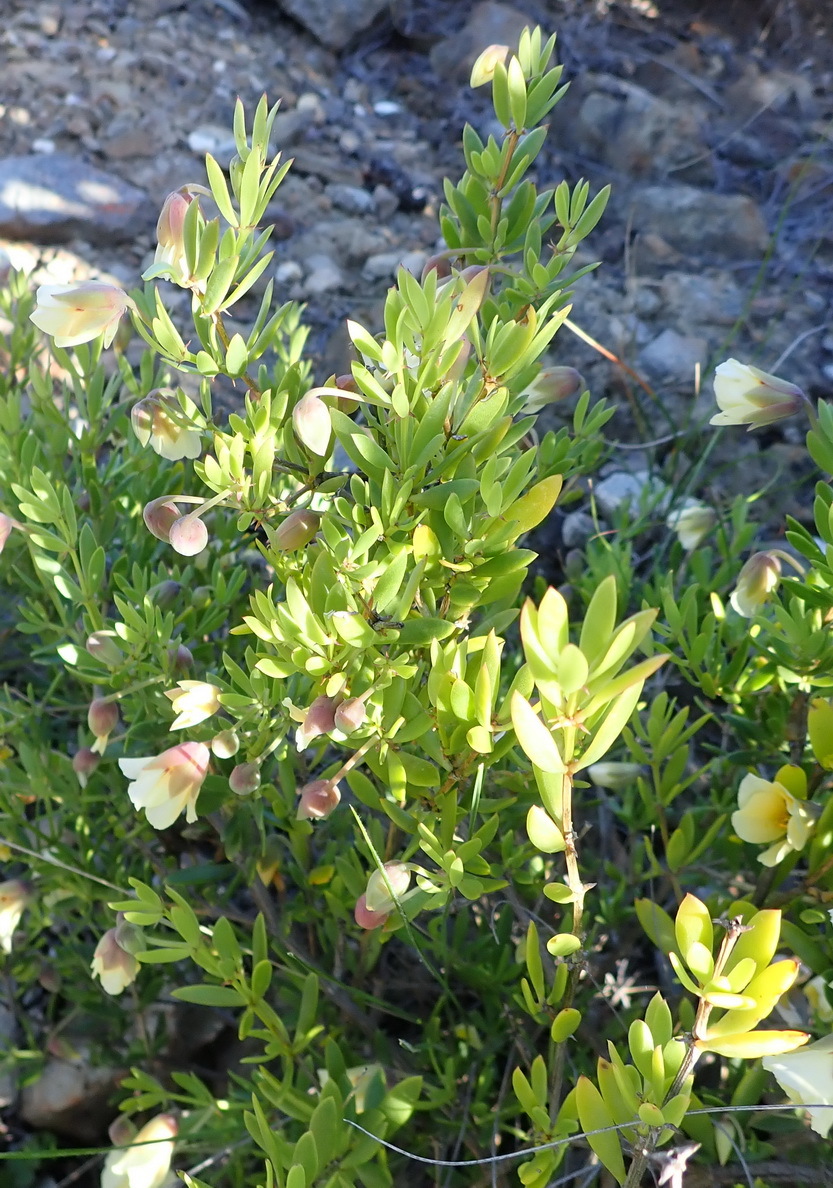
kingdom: Plantae
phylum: Tracheophyta
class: Magnoliopsida
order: Zygophyllales
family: Zygophyllaceae
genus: Roepera
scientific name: Roepera fulva
